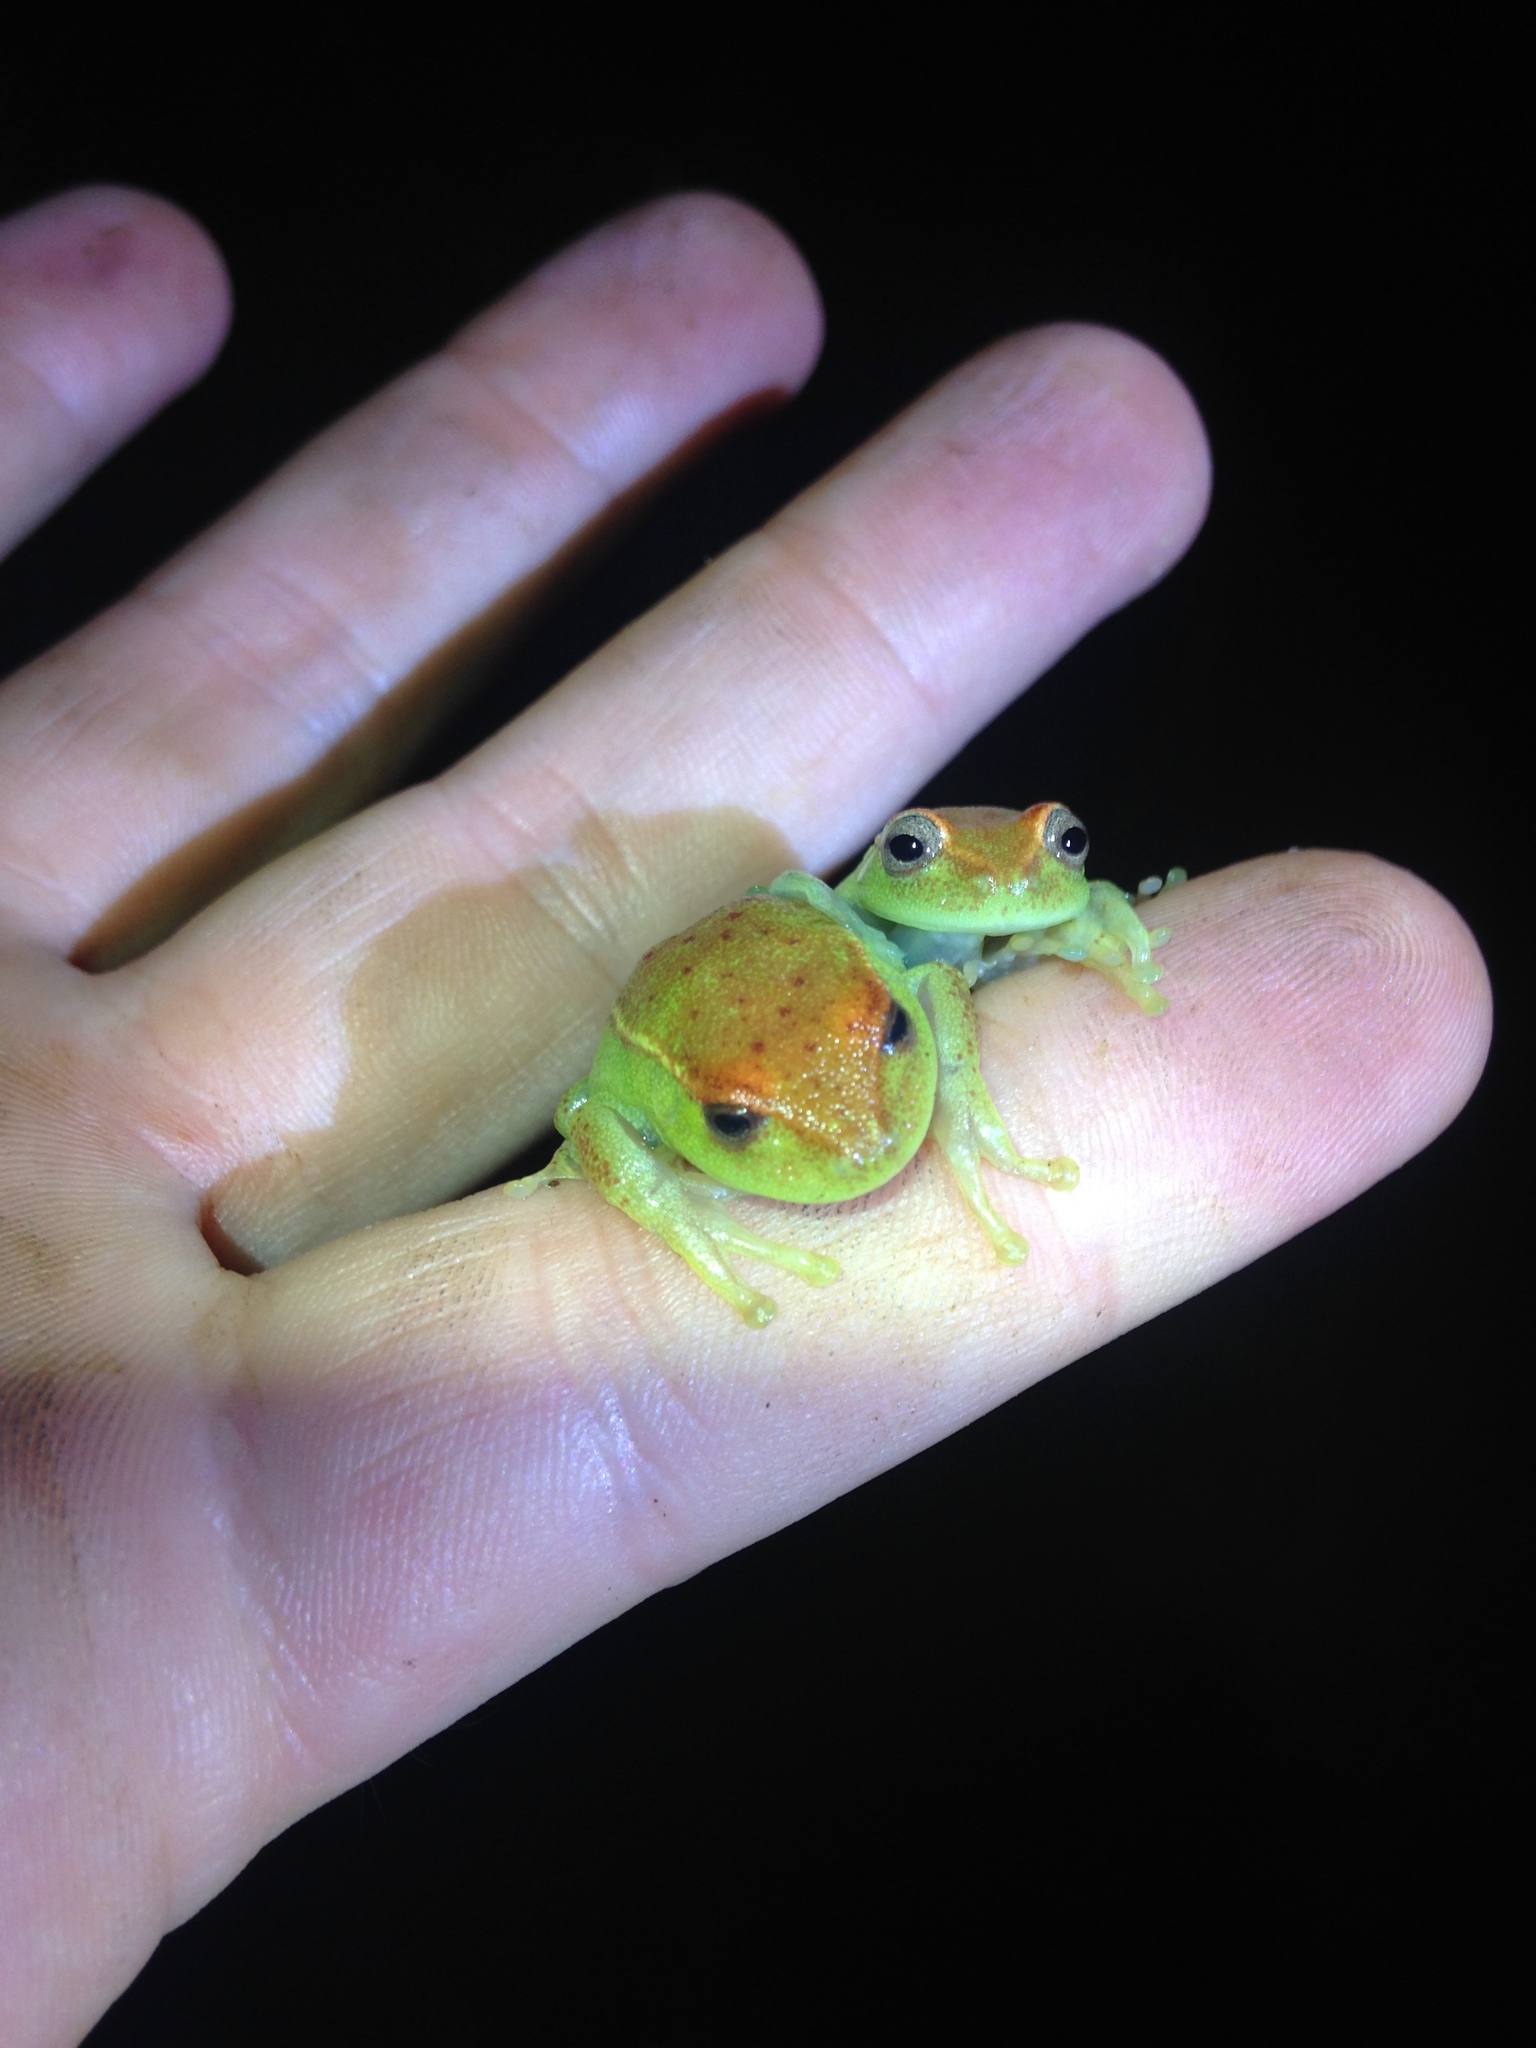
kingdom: Animalia
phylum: Chordata
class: Amphibia
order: Anura
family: Hylidae
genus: Boana
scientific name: Boana punctata
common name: Polka-dot treefrog
